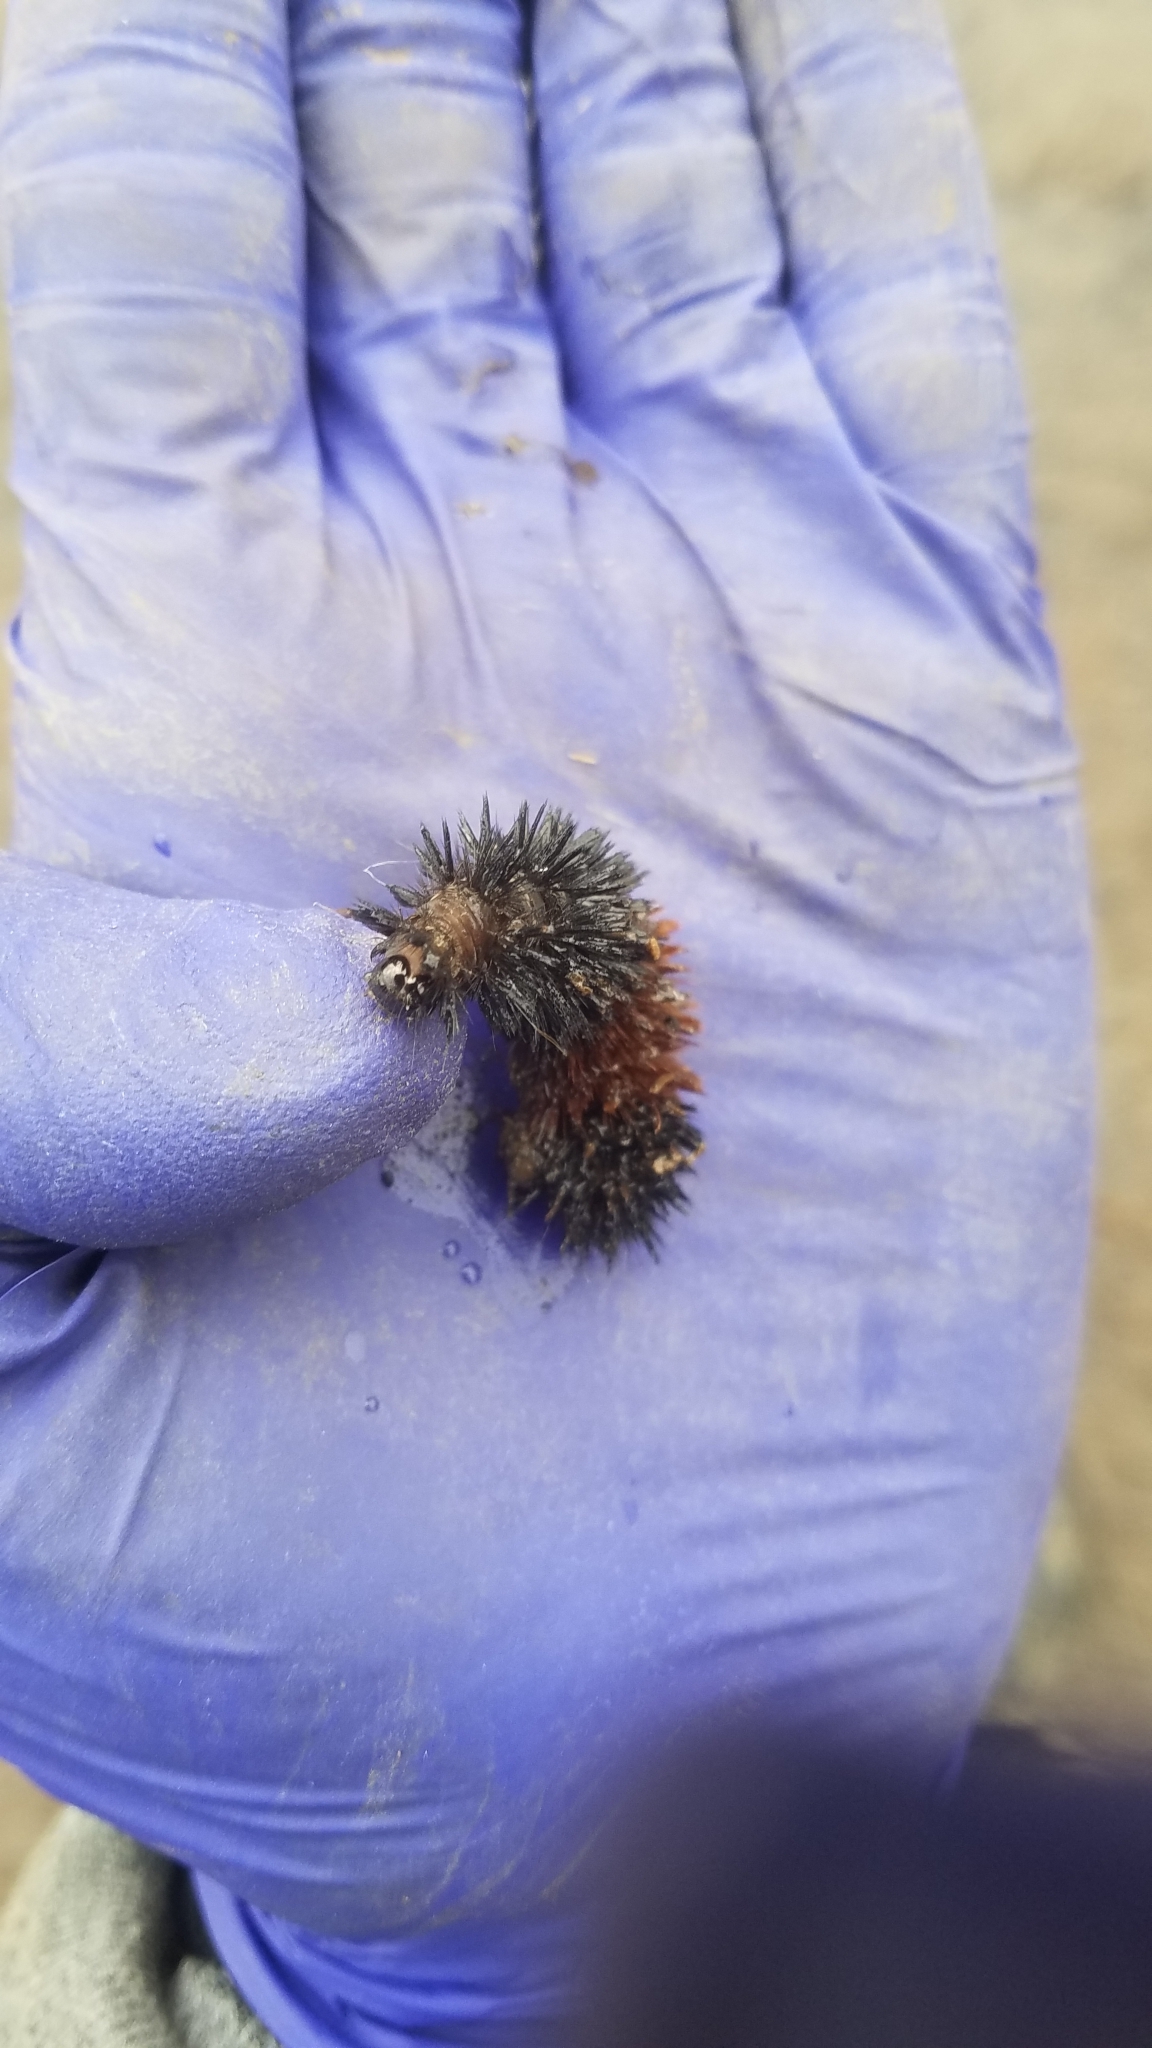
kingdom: Animalia
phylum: Arthropoda
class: Insecta
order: Lepidoptera
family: Erebidae
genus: Pyrrharctia
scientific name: Pyrrharctia isabella
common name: Isabella tiger moth
